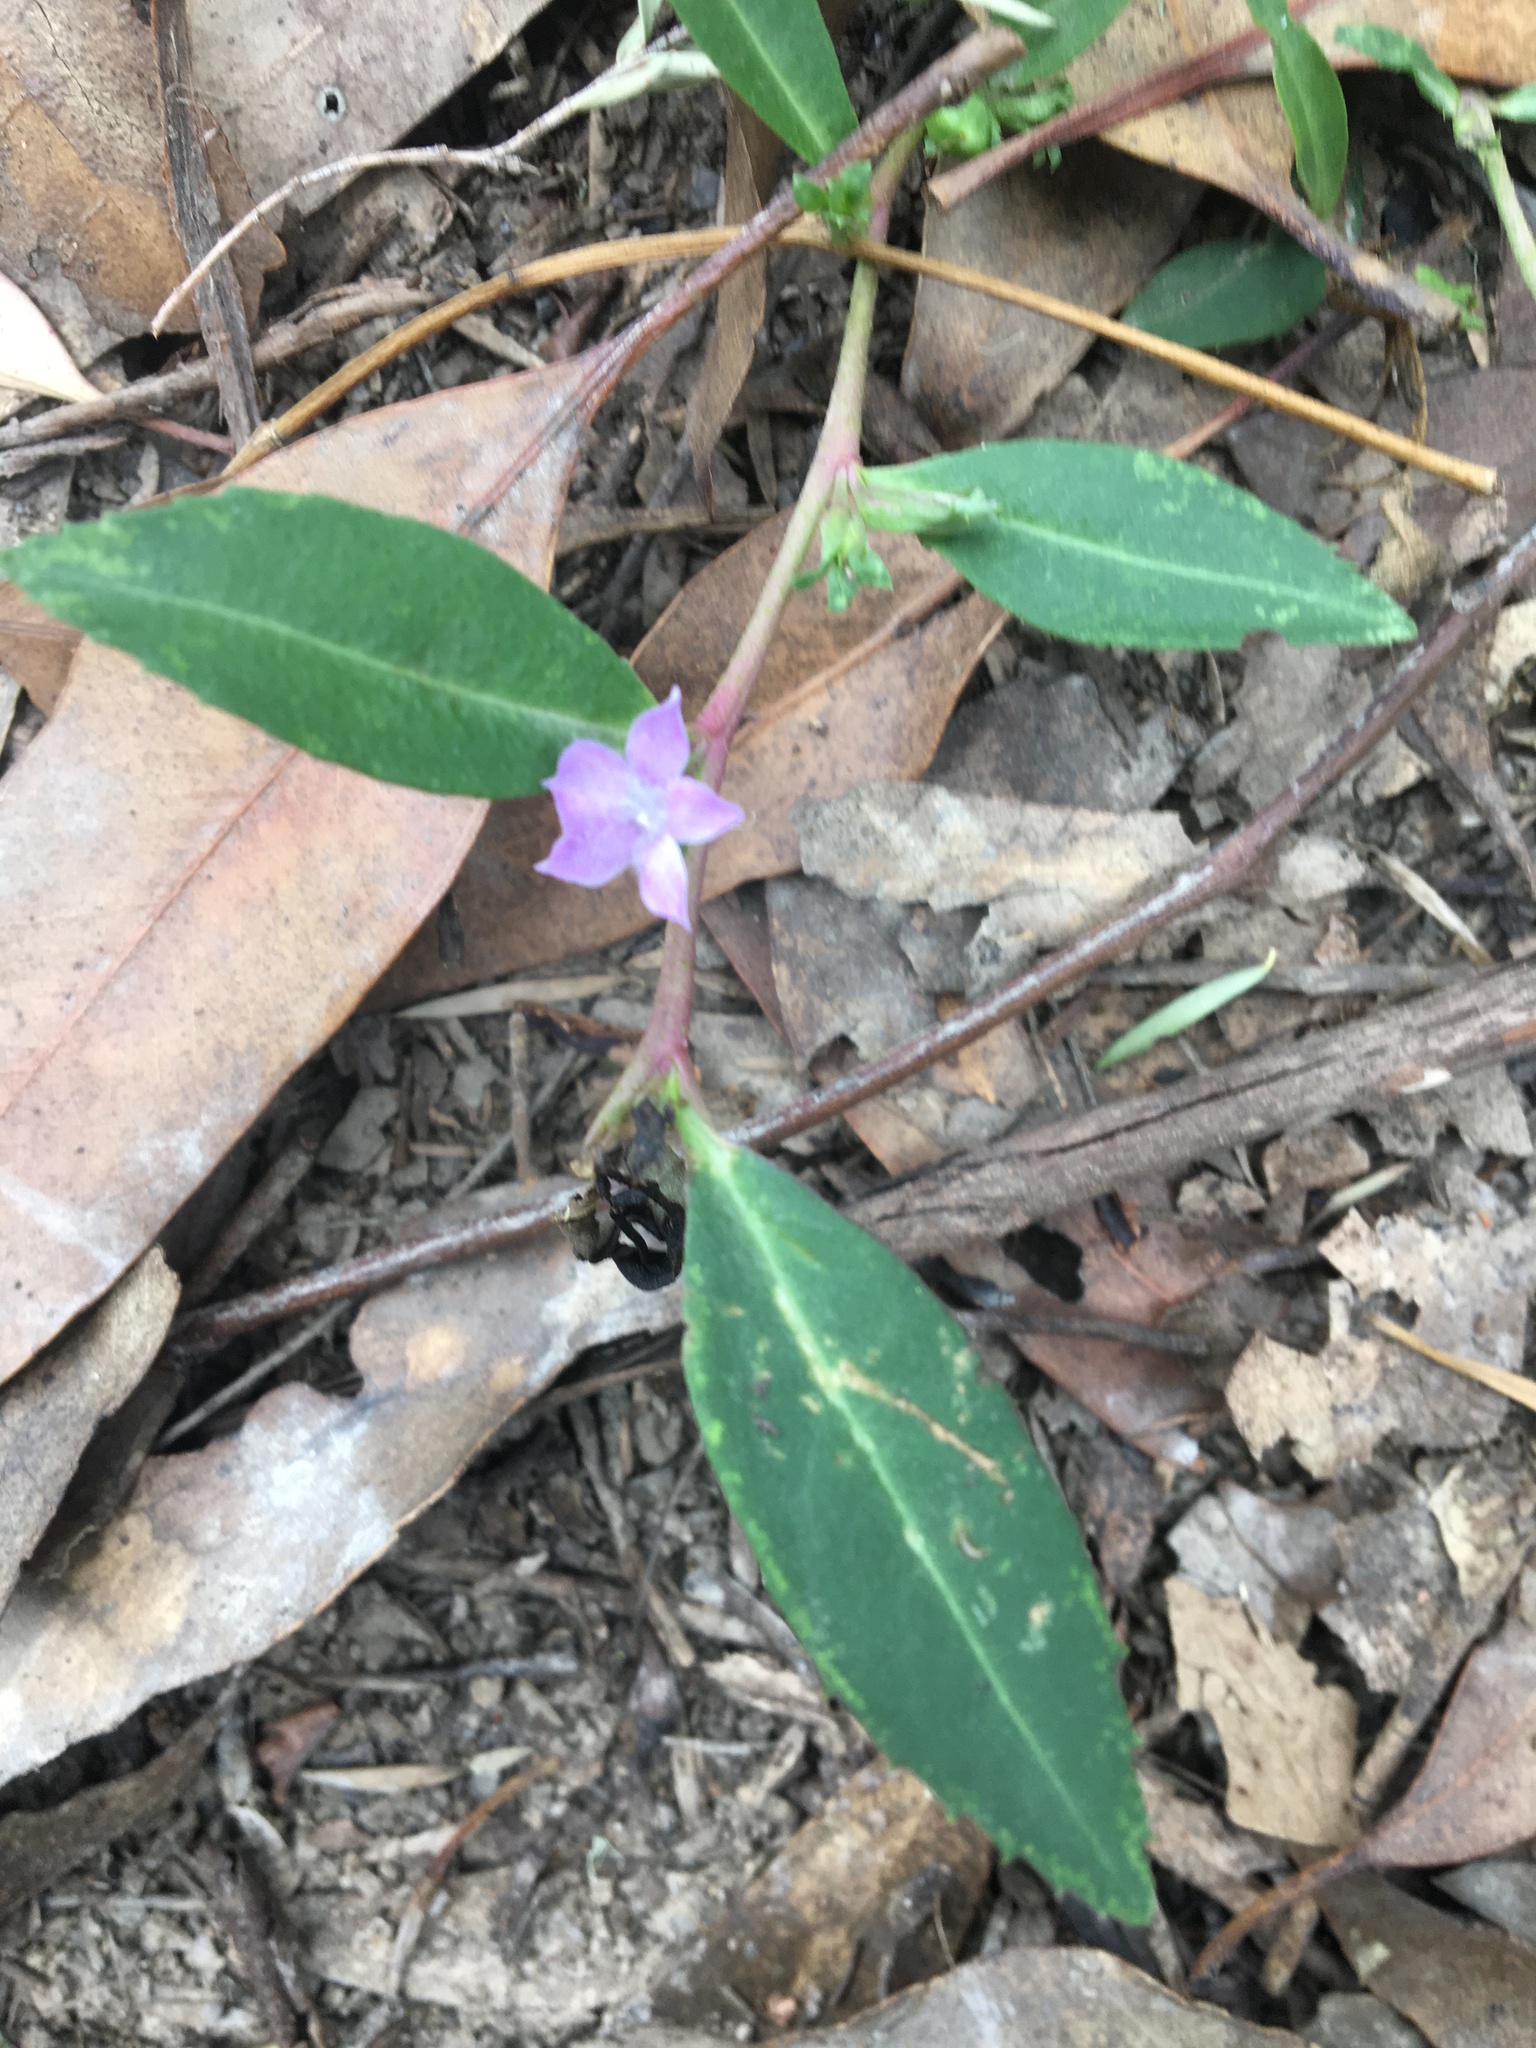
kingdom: Plantae
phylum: Tracheophyta
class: Magnoliopsida
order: Lamiales
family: Scrophulariaceae
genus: Eremophila
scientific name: Eremophila debilis
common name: Winter-apple
